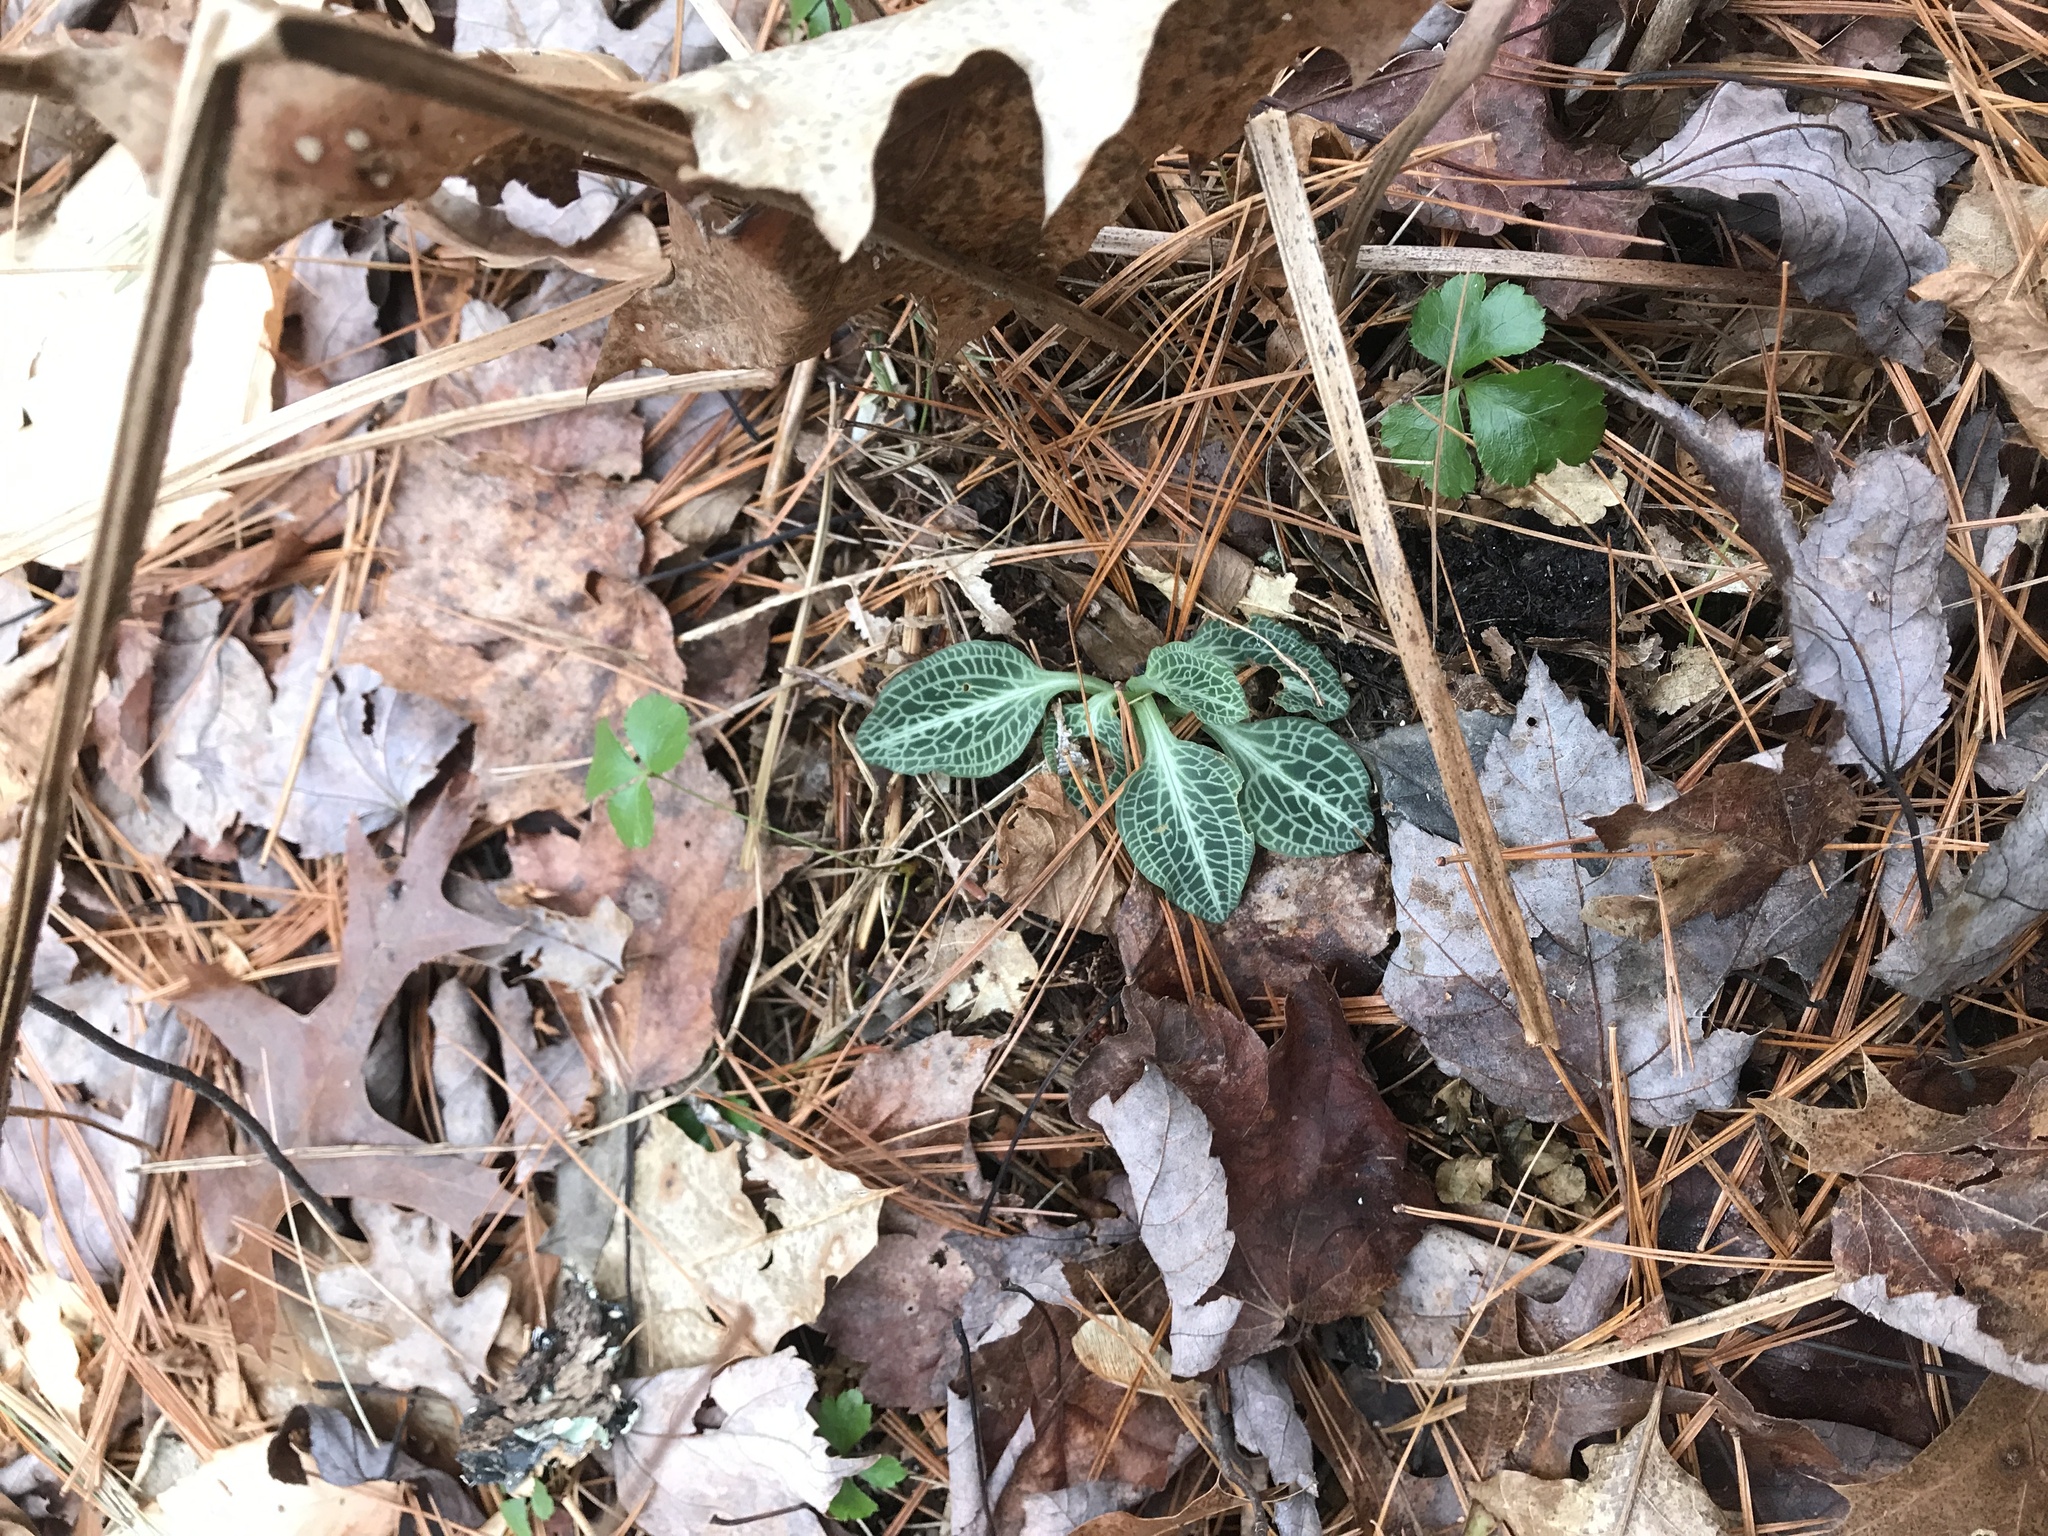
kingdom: Plantae
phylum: Tracheophyta
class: Liliopsida
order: Asparagales
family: Orchidaceae
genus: Goodyera
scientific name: Goodyera pubescens
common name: Downy rattlesnake-plantain
